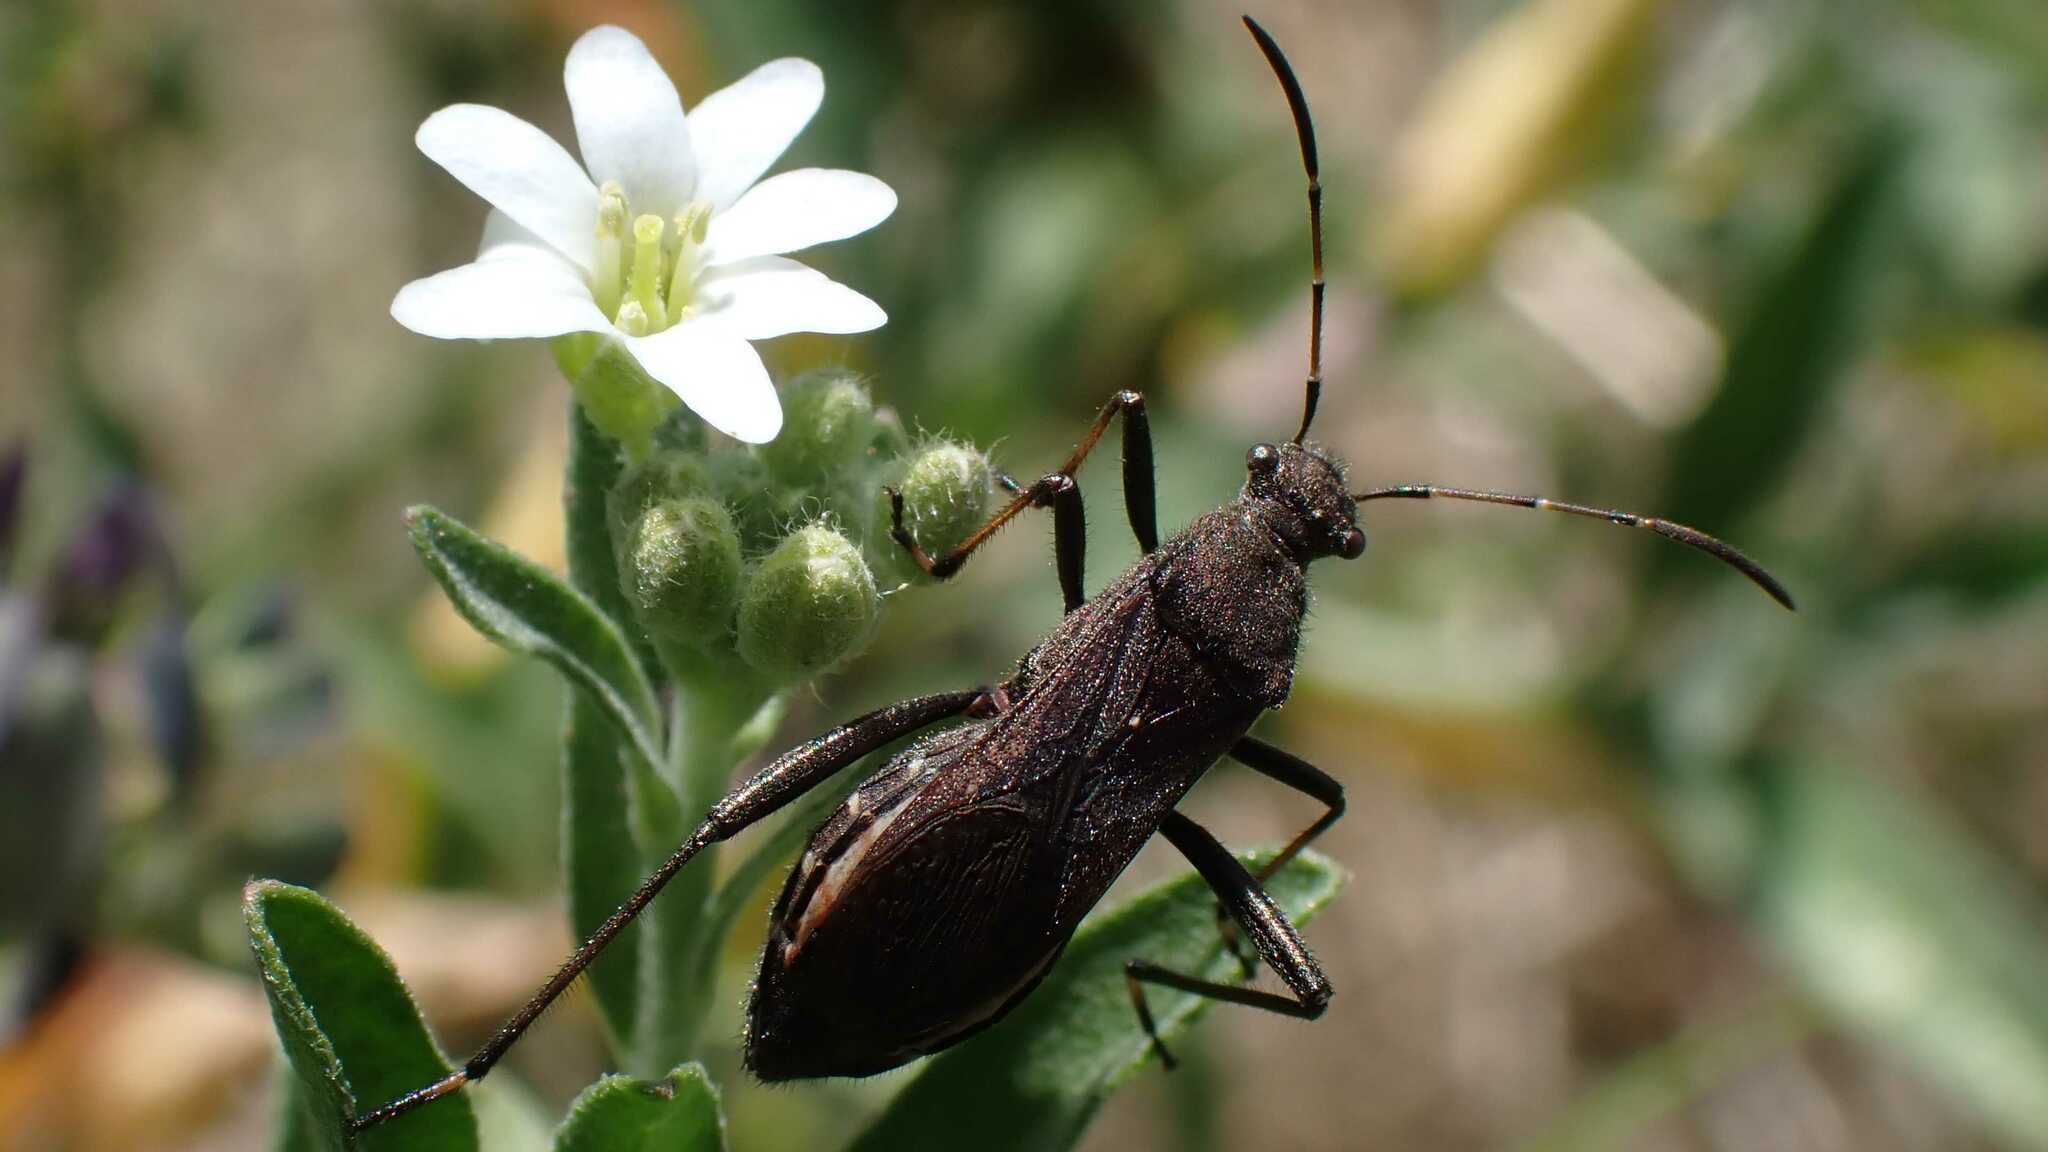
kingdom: Animalia
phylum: Arthropoda
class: Insecta
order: Hemiptera
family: Alydidae
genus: Alydus
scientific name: Alydus calcaratus
